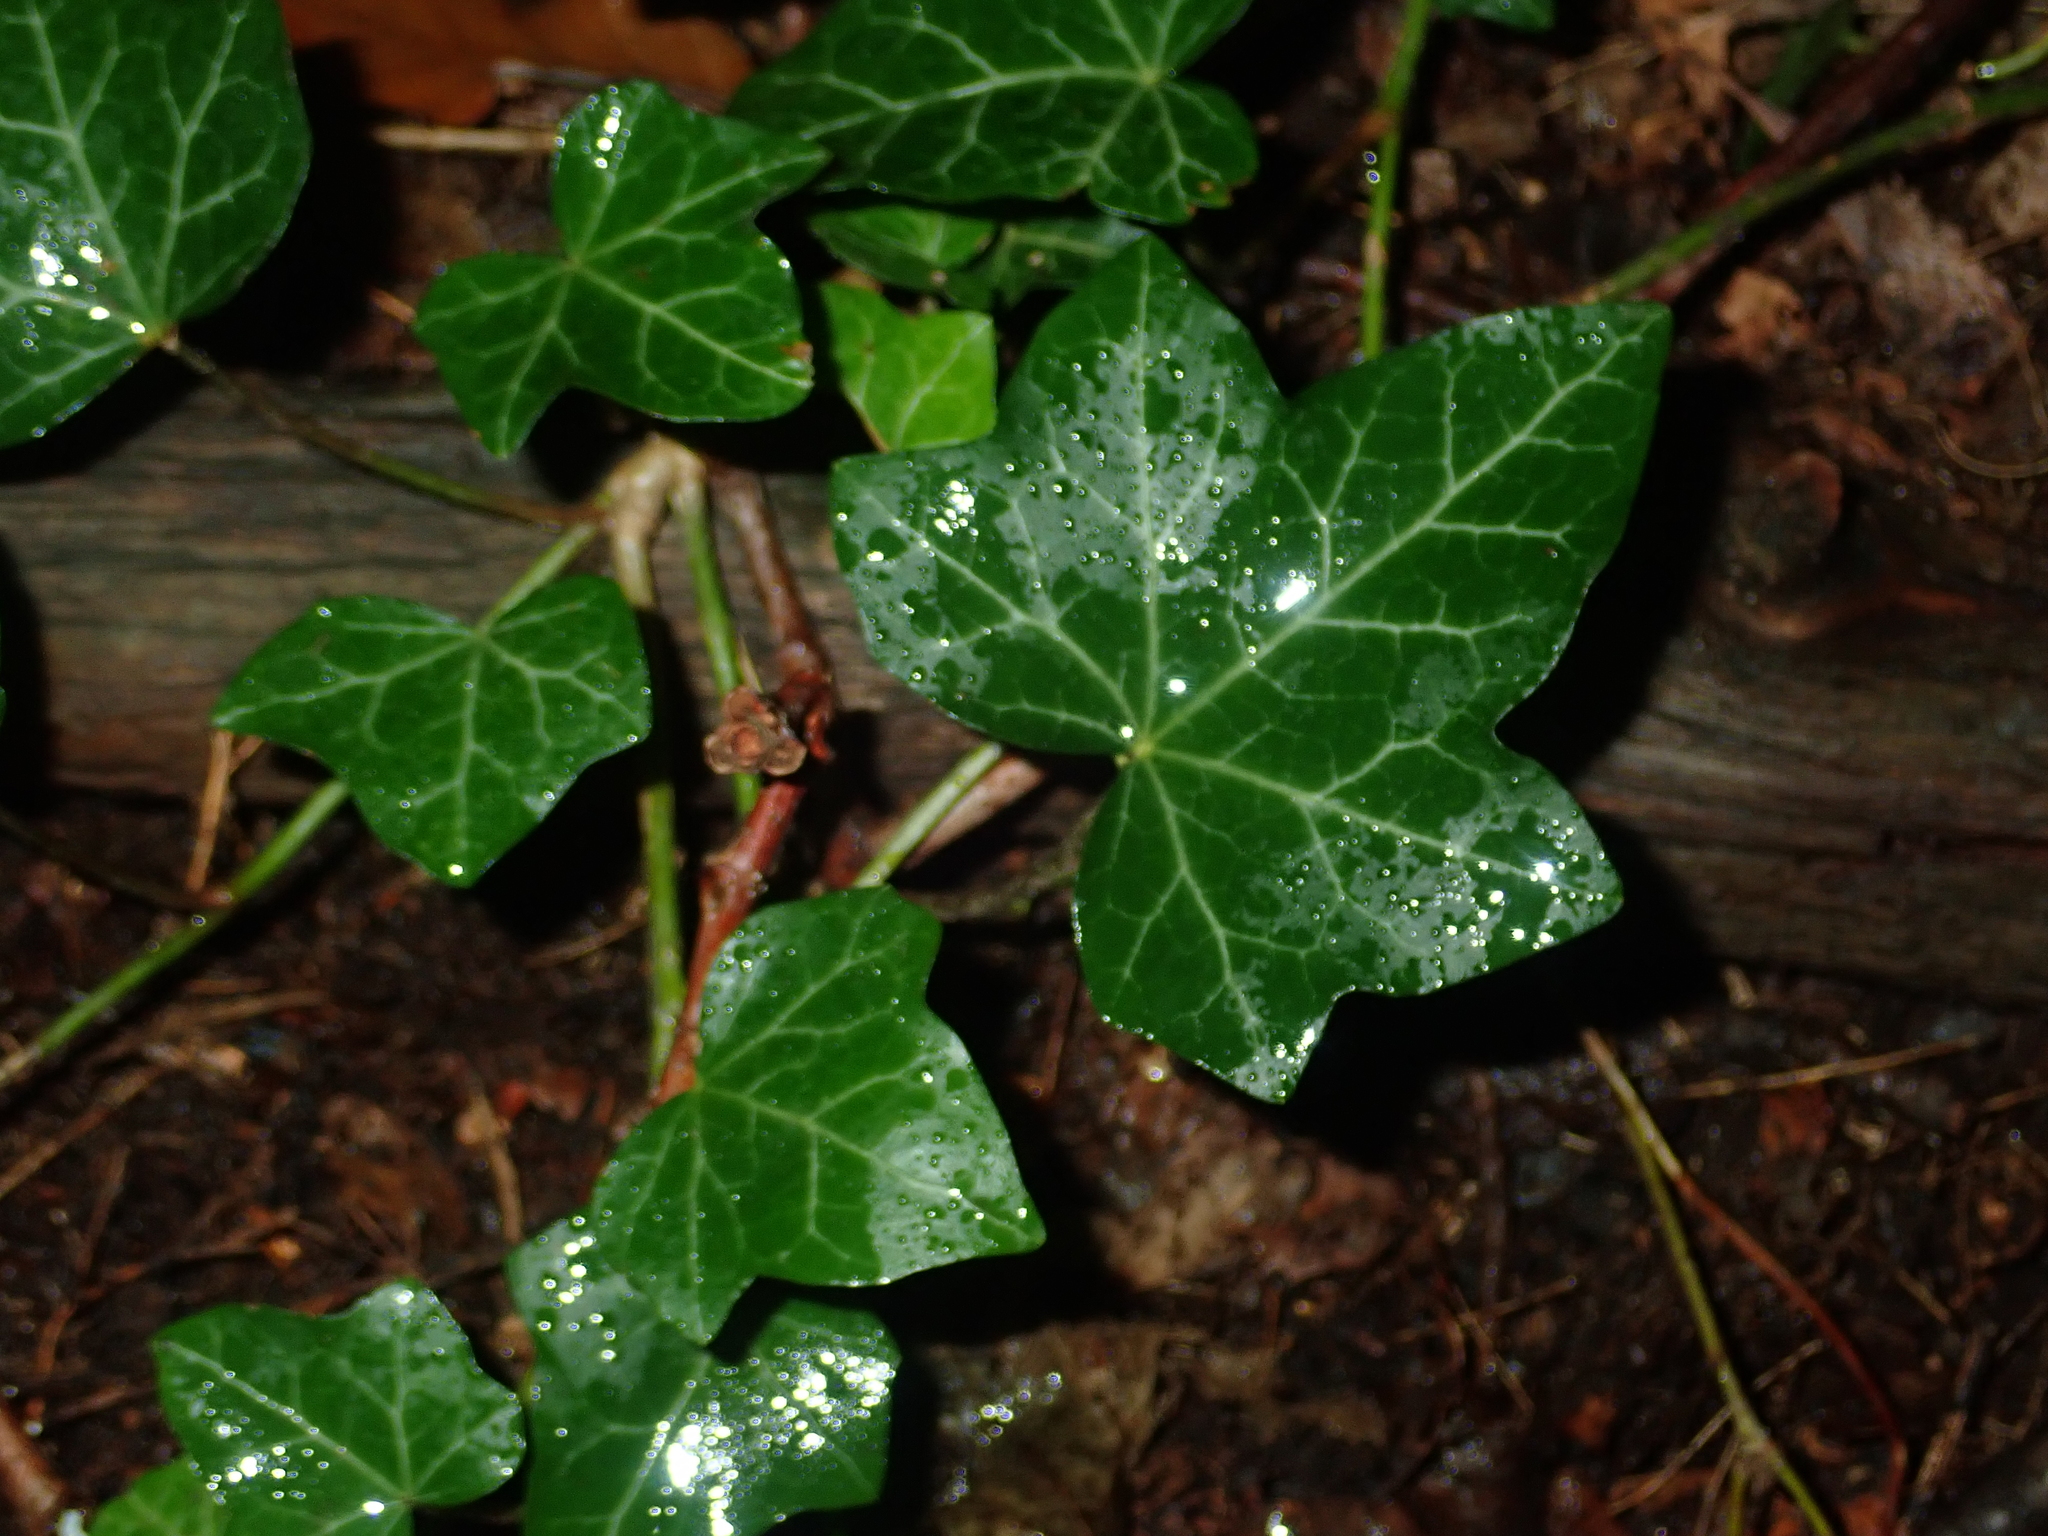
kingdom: Plantae
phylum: Tracheophyta
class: Magnoliopsida
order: Apiales
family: Araliaceae
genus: Hedera
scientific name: Hedera helix
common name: Ivy
